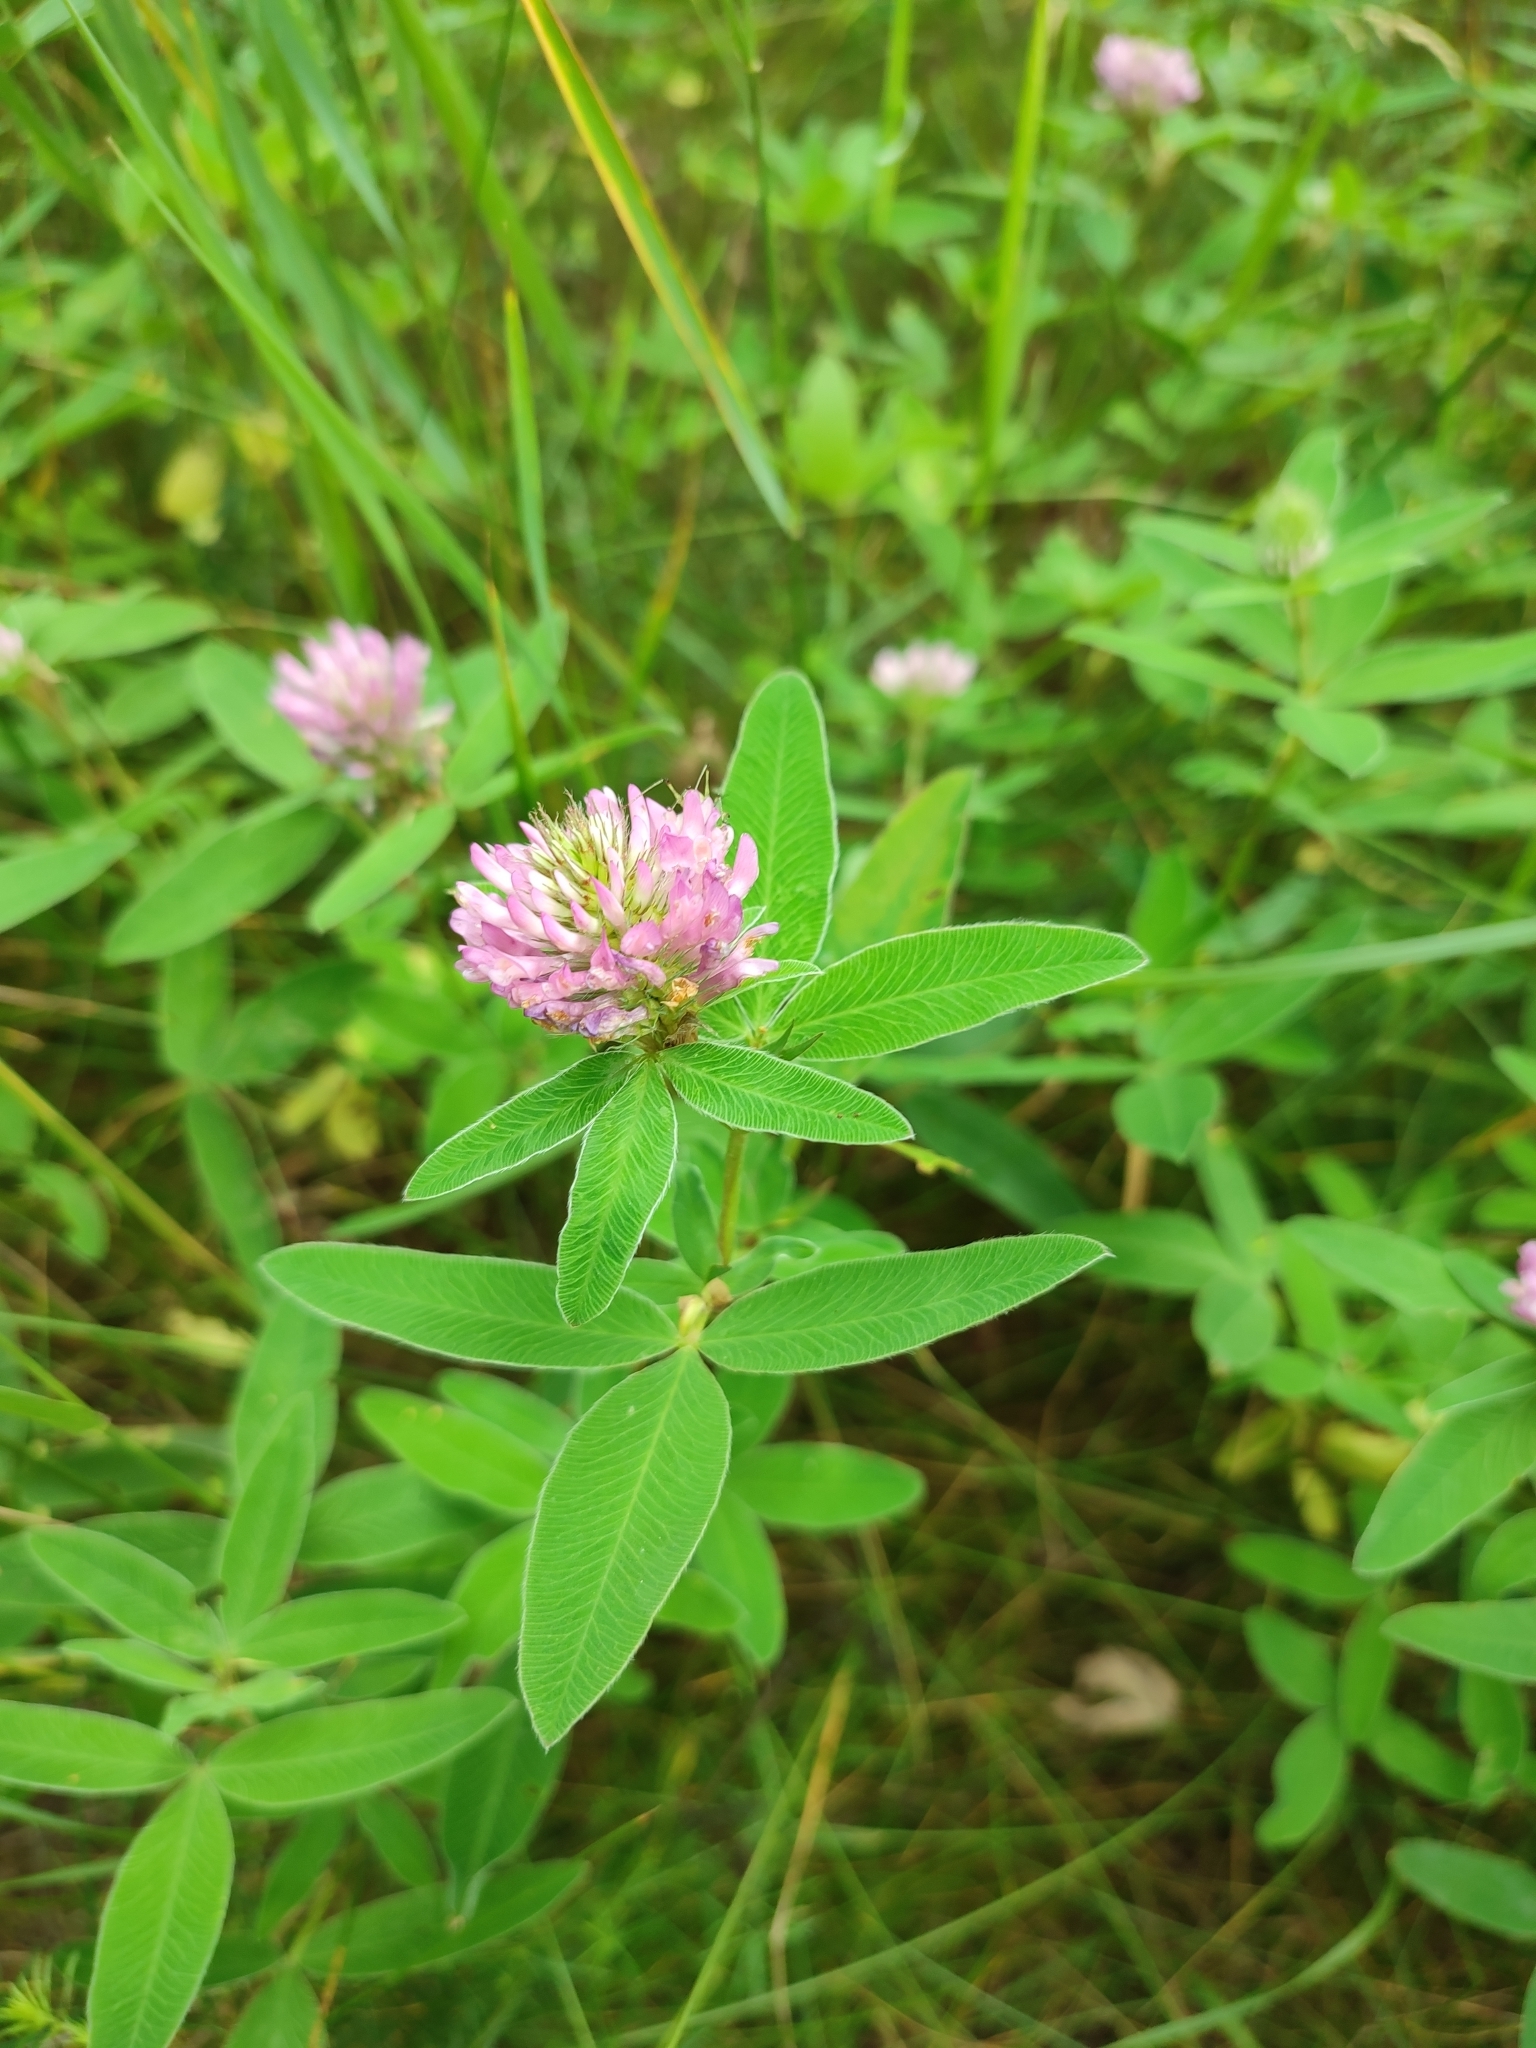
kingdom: Plantae
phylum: Tracheophyta
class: Magnoliopsida
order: Fabales
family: Fabaceae
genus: Trifolium
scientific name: Trifolium medium
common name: Zigzag clover
